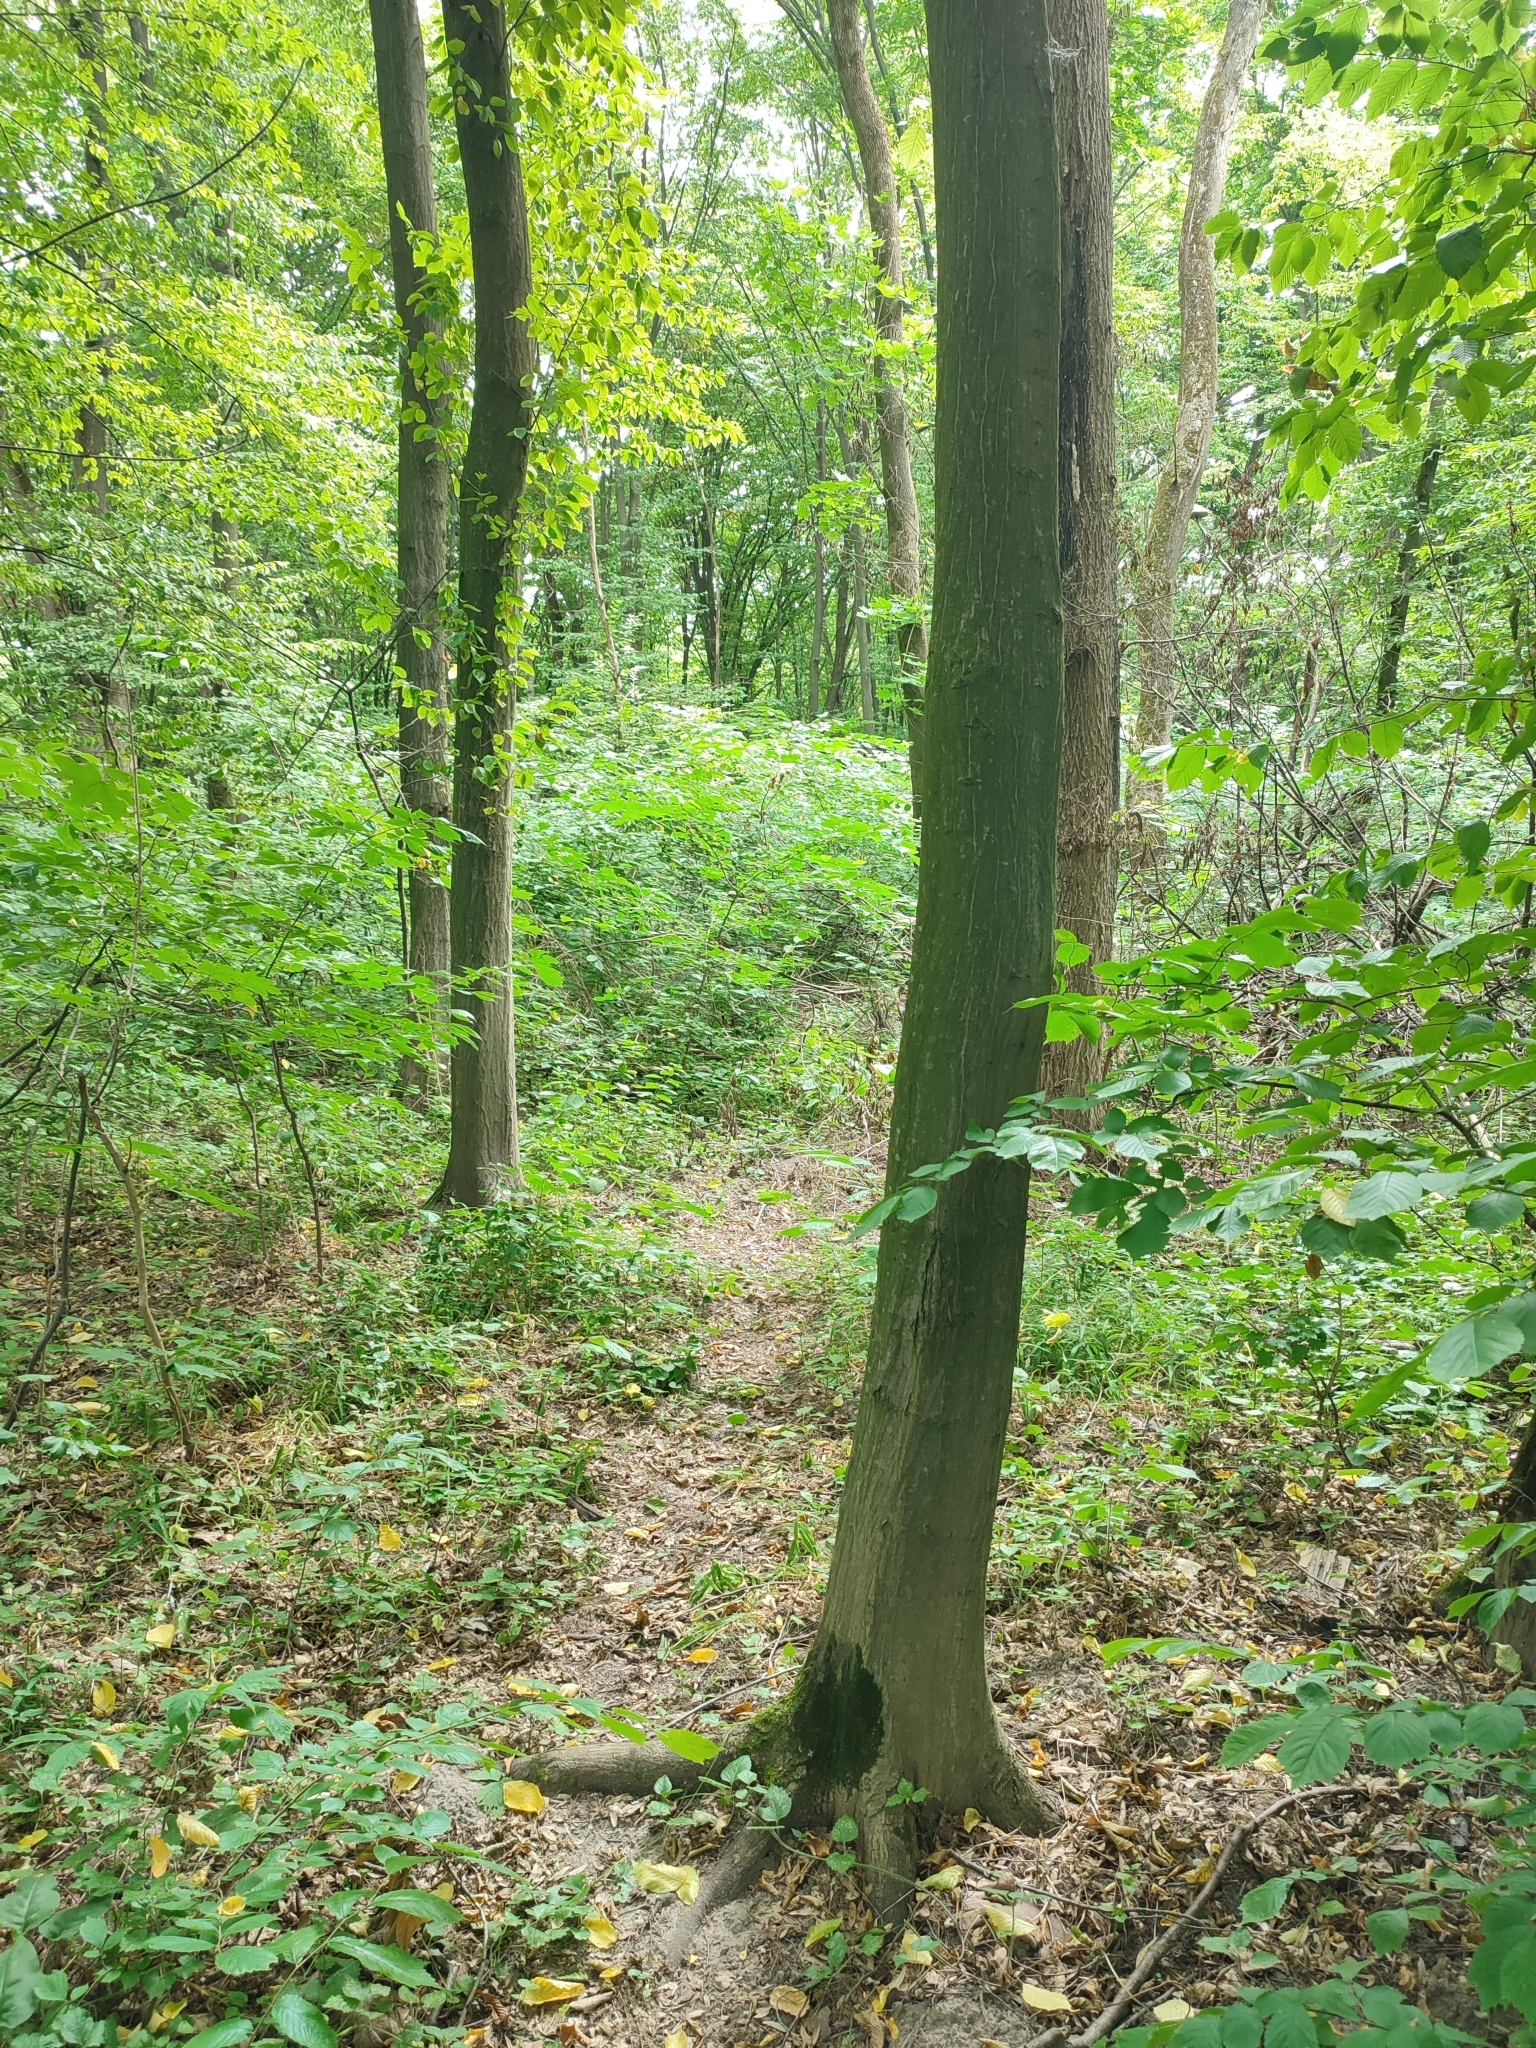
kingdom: Plantae
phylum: Tracheophyta
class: Magnoliopsida
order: Fagales
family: Betulaceae
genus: Carpinus
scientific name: Carpinus betulus
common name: Hornbeam
